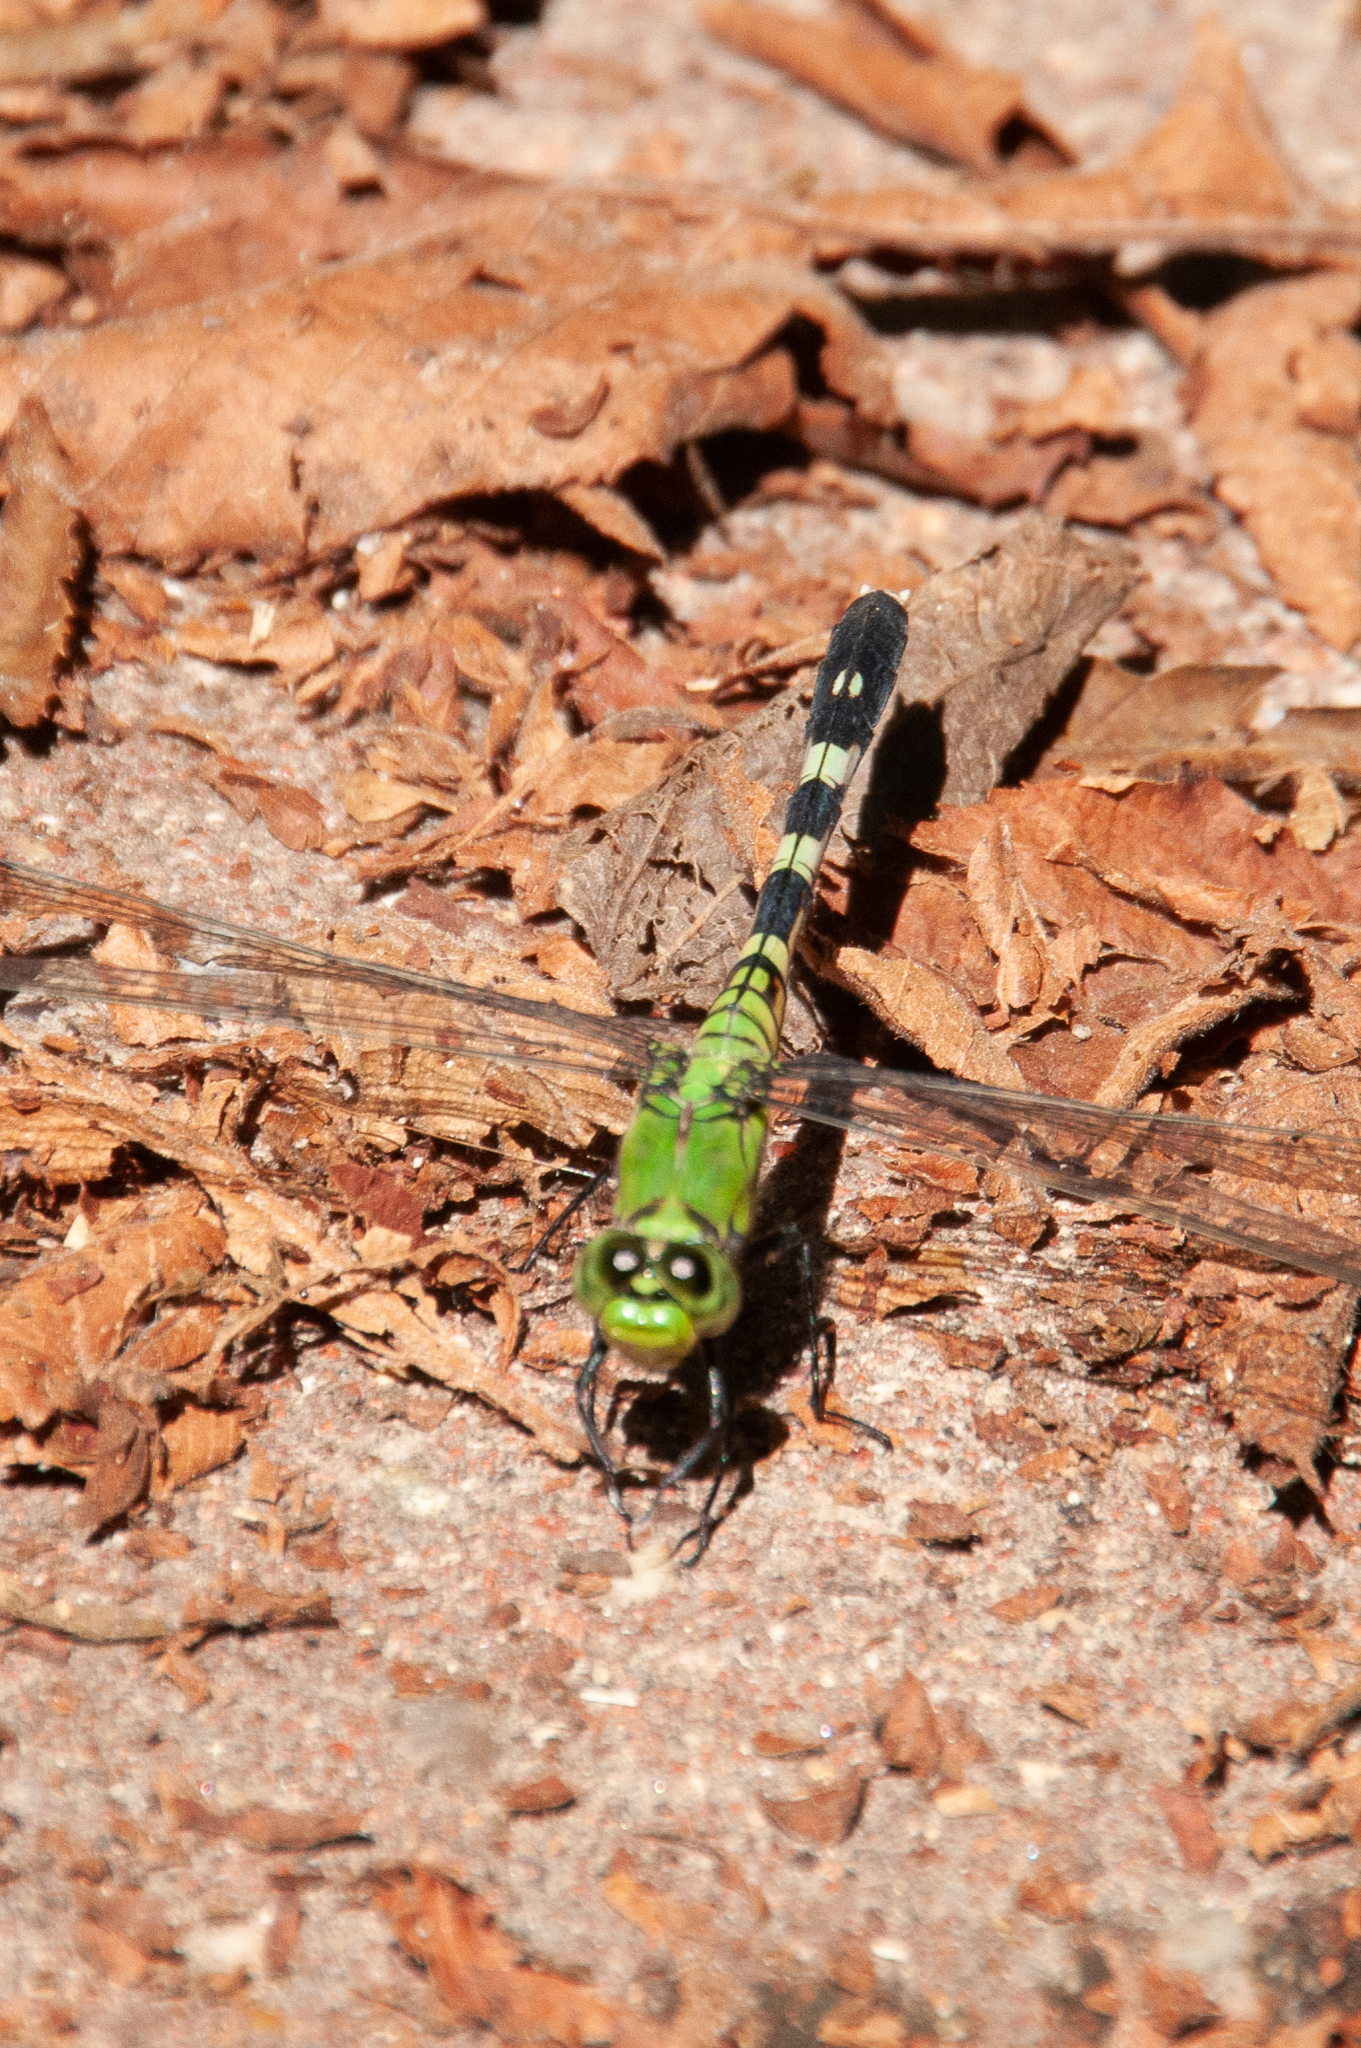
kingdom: Animalia
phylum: Arthropoda
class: Insecta
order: Odonata
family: Libellulidae
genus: Erythemis
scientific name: Erythemis simplicicollis
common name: Eastern pondhawk
